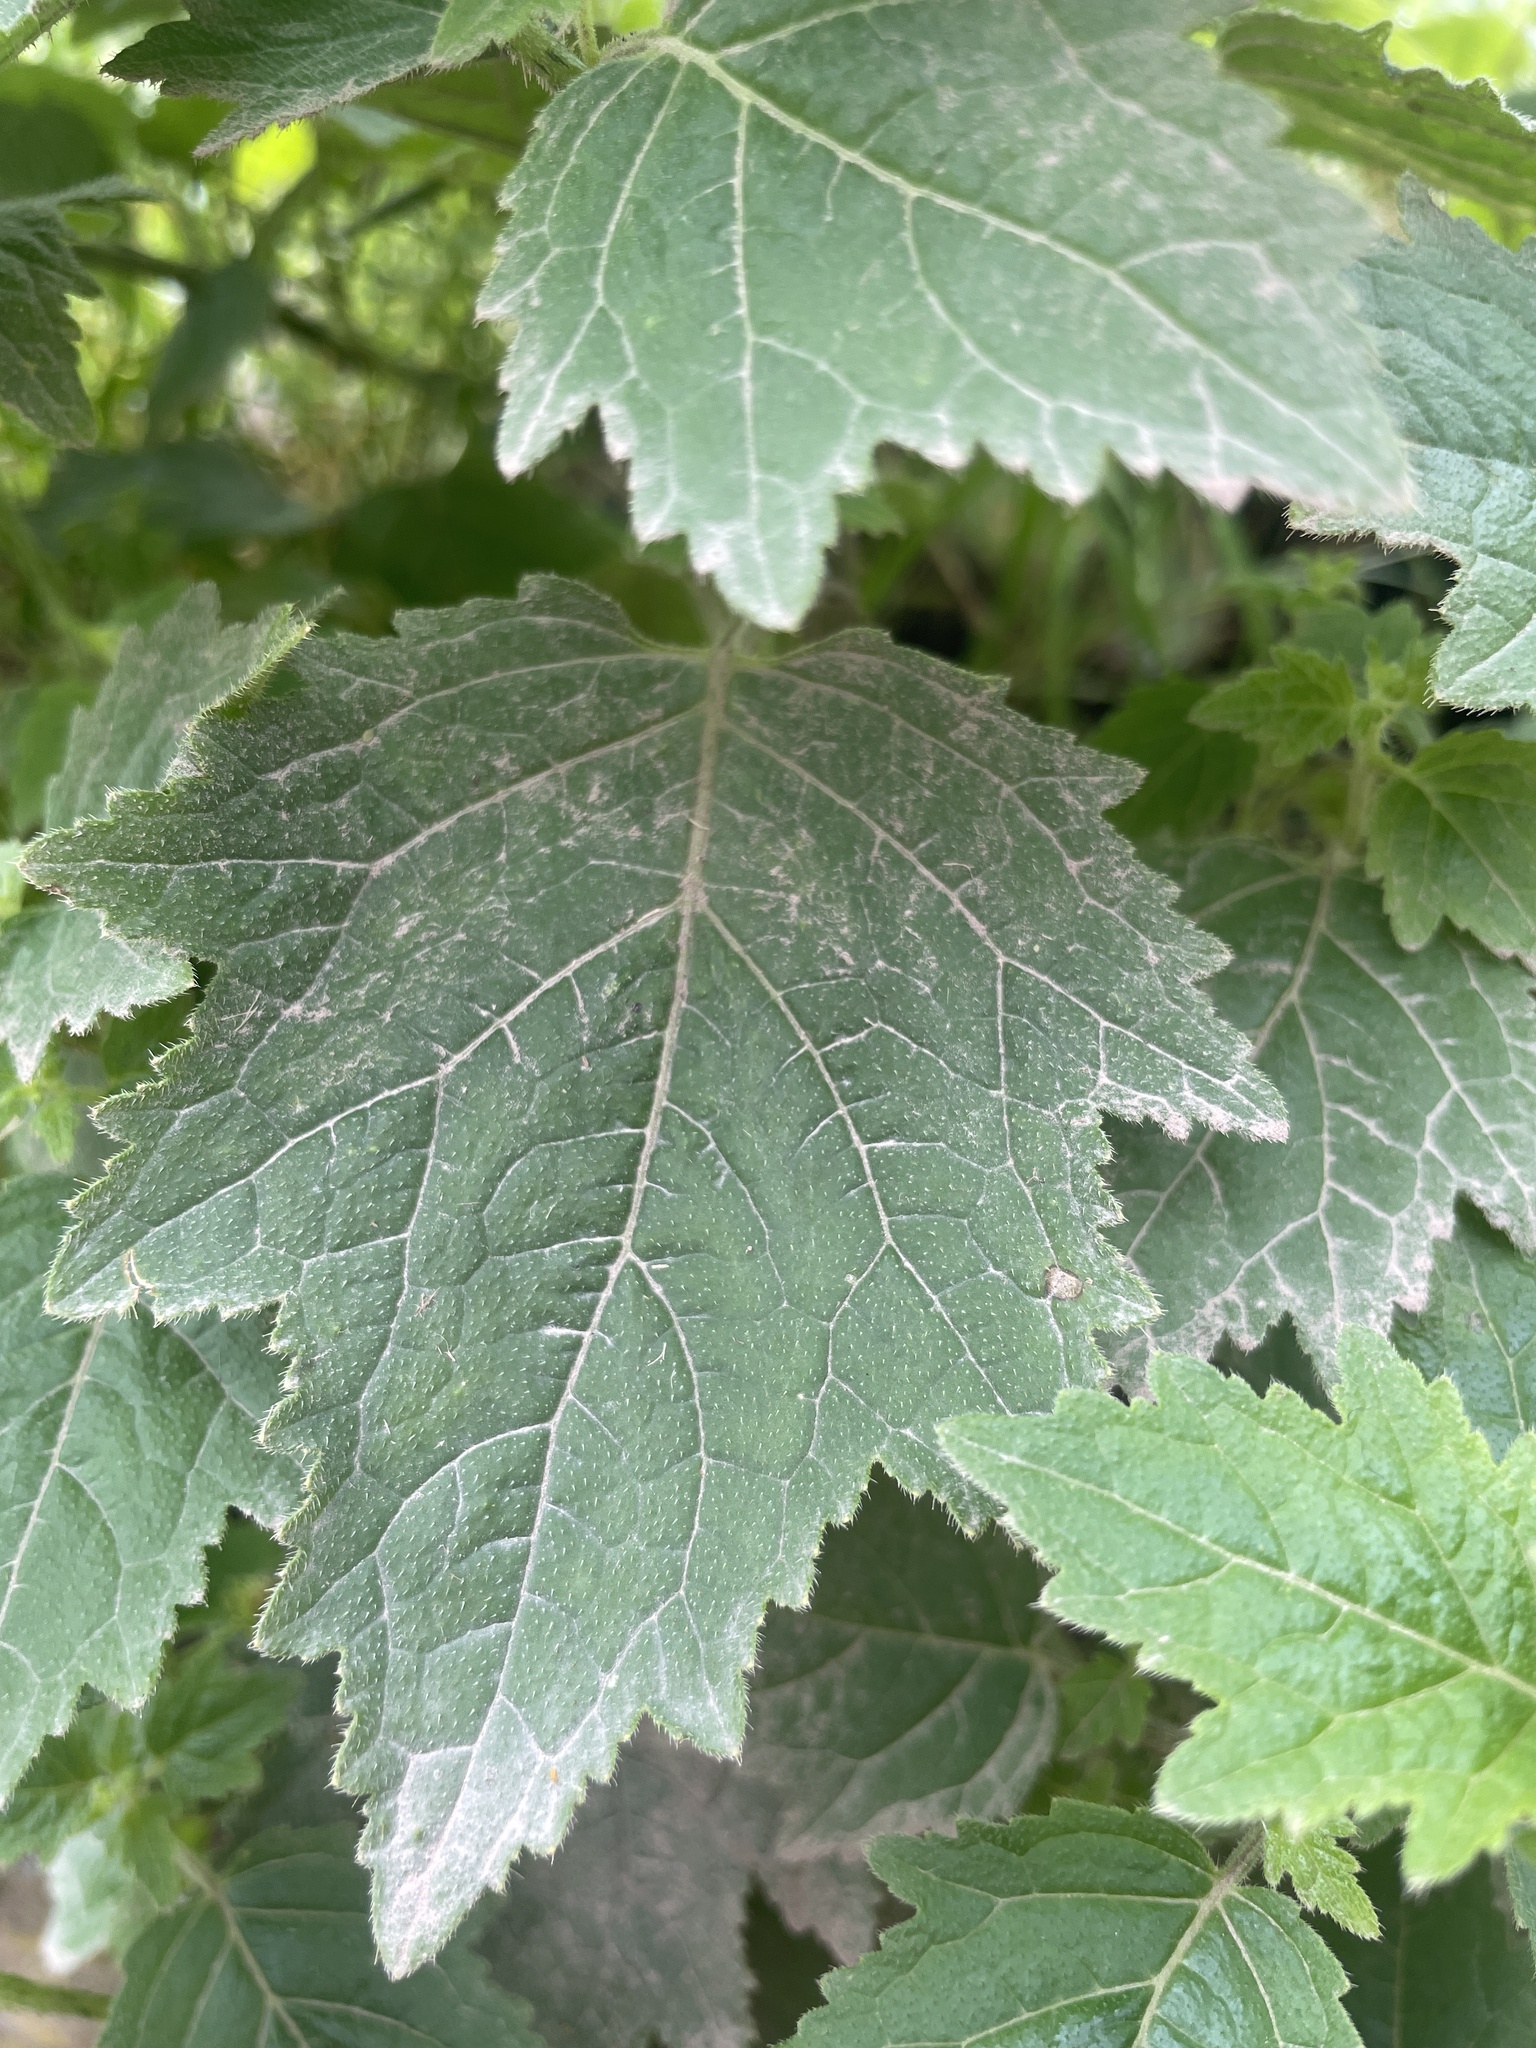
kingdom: Plantae
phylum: Tracheophyta
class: Magnoliopsida
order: Cornales
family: Loasaceae
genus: Nasa
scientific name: Nasa chenopodiifolia
